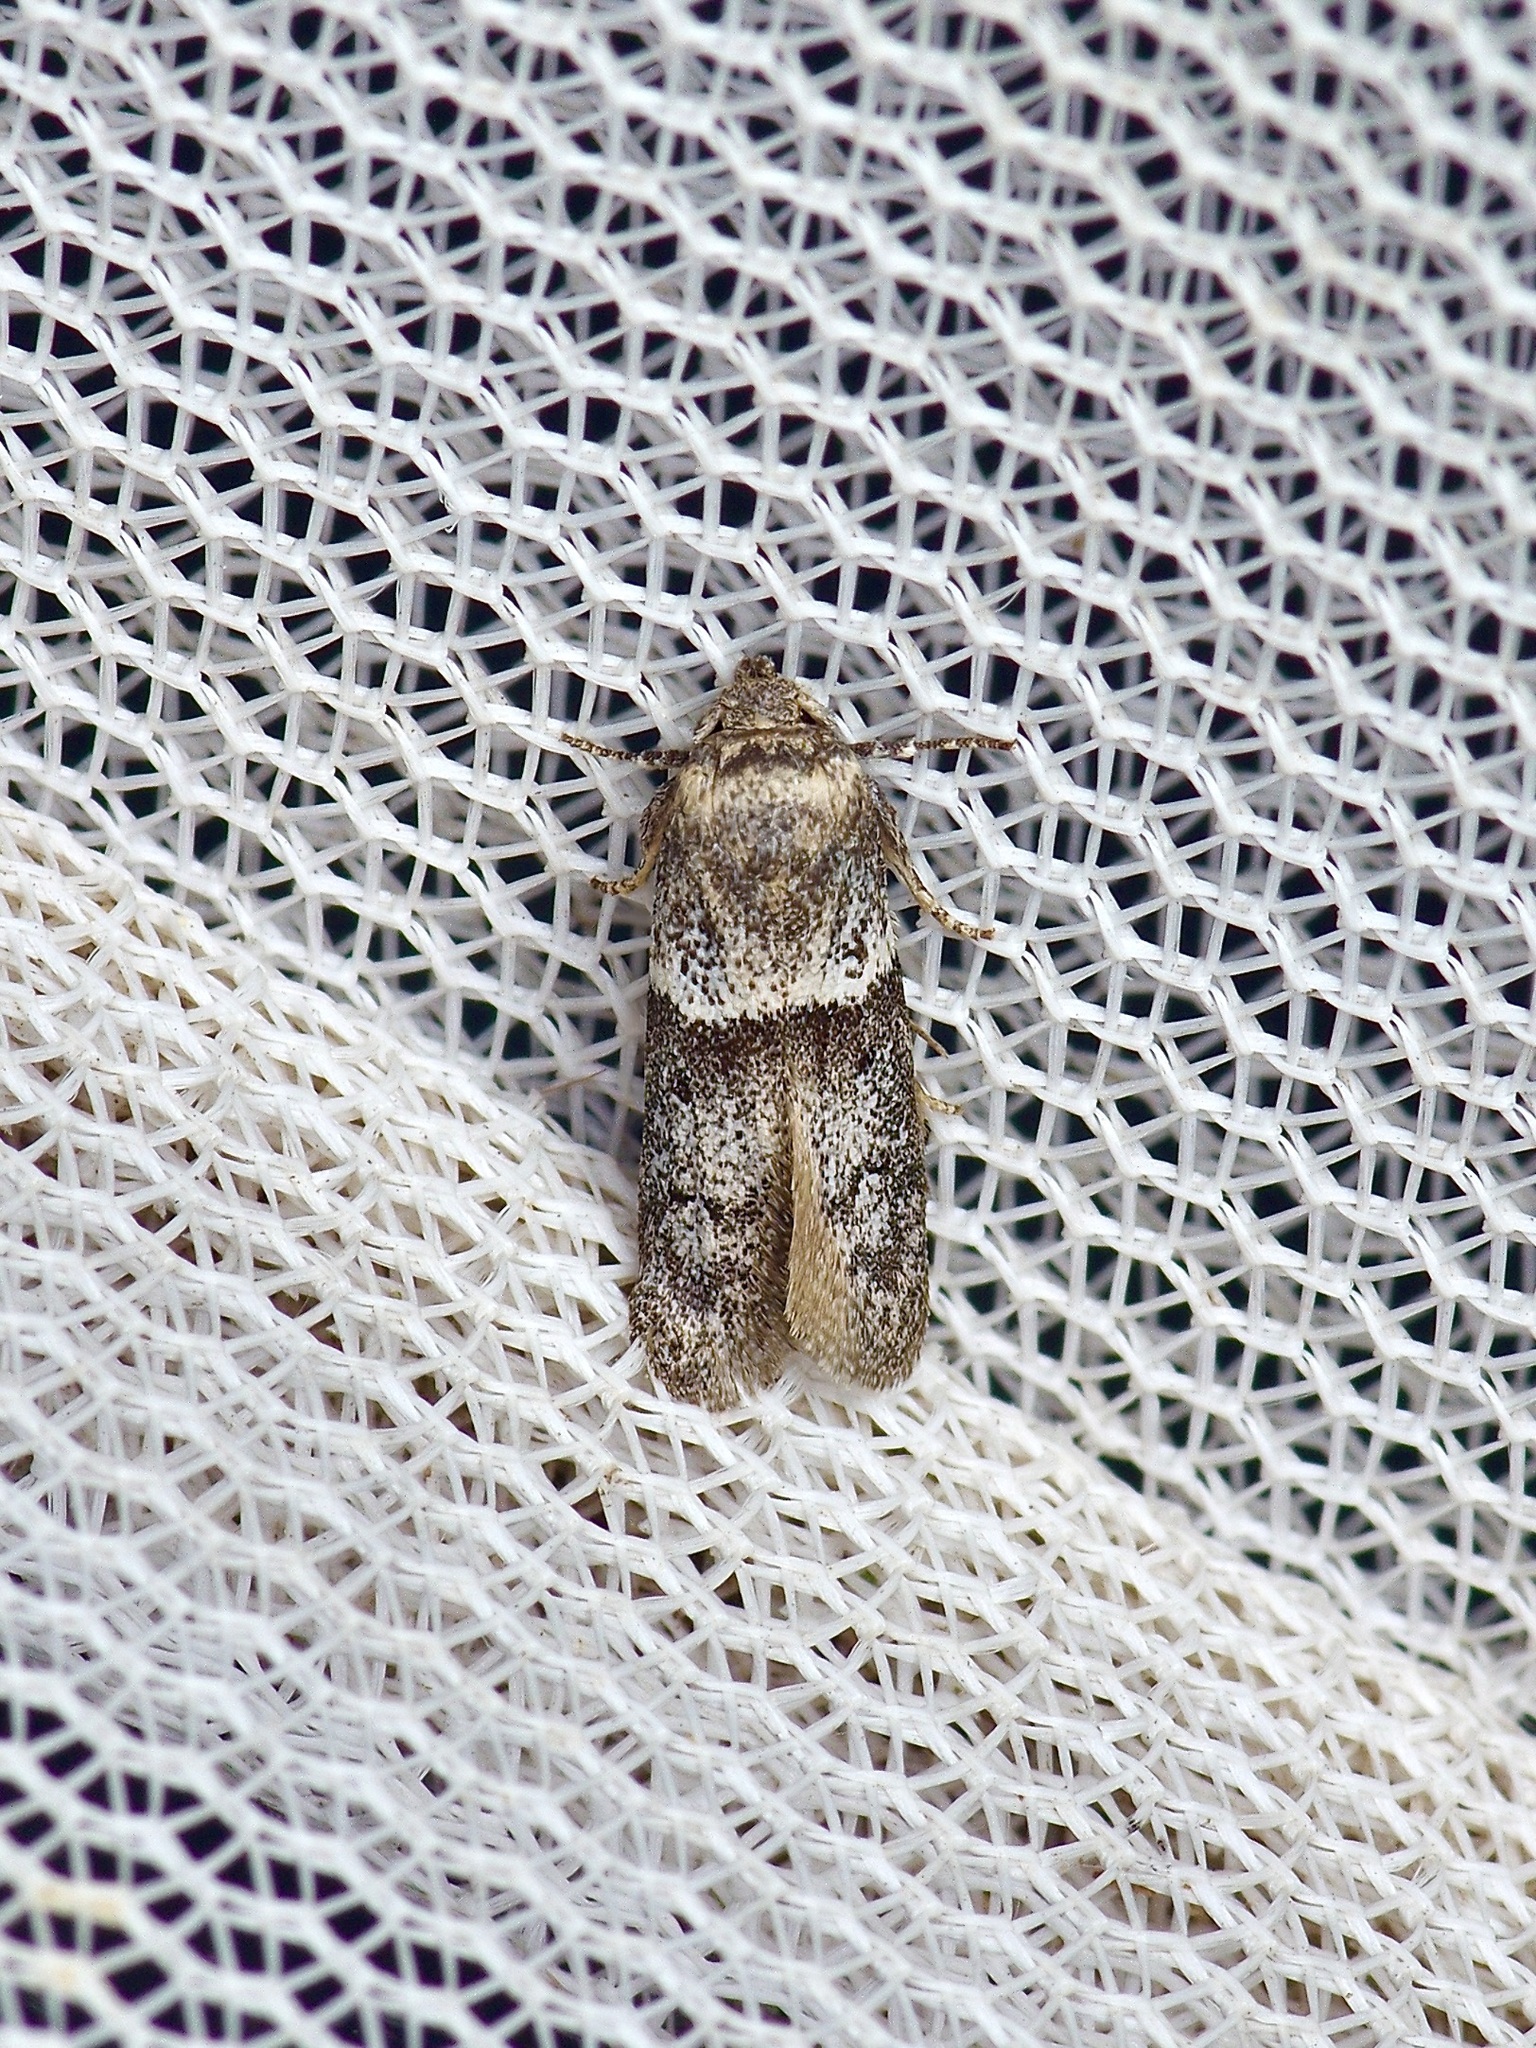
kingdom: Animalia
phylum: Arthropoda
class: Insecta
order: Lepidoptera
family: Blastobasidae
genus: Blastobasis
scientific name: Blastobasis glandulella
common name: Acorn moth
